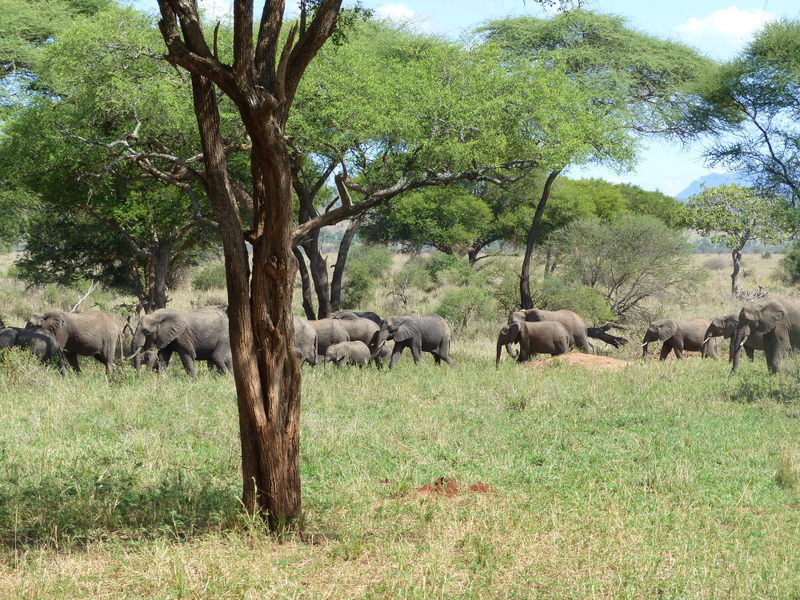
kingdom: Animalia
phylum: Chordata
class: Mammalia
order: Proboscidea
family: Elephantidae
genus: Loxodonta
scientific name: Loxodonta africana
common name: African elephant
